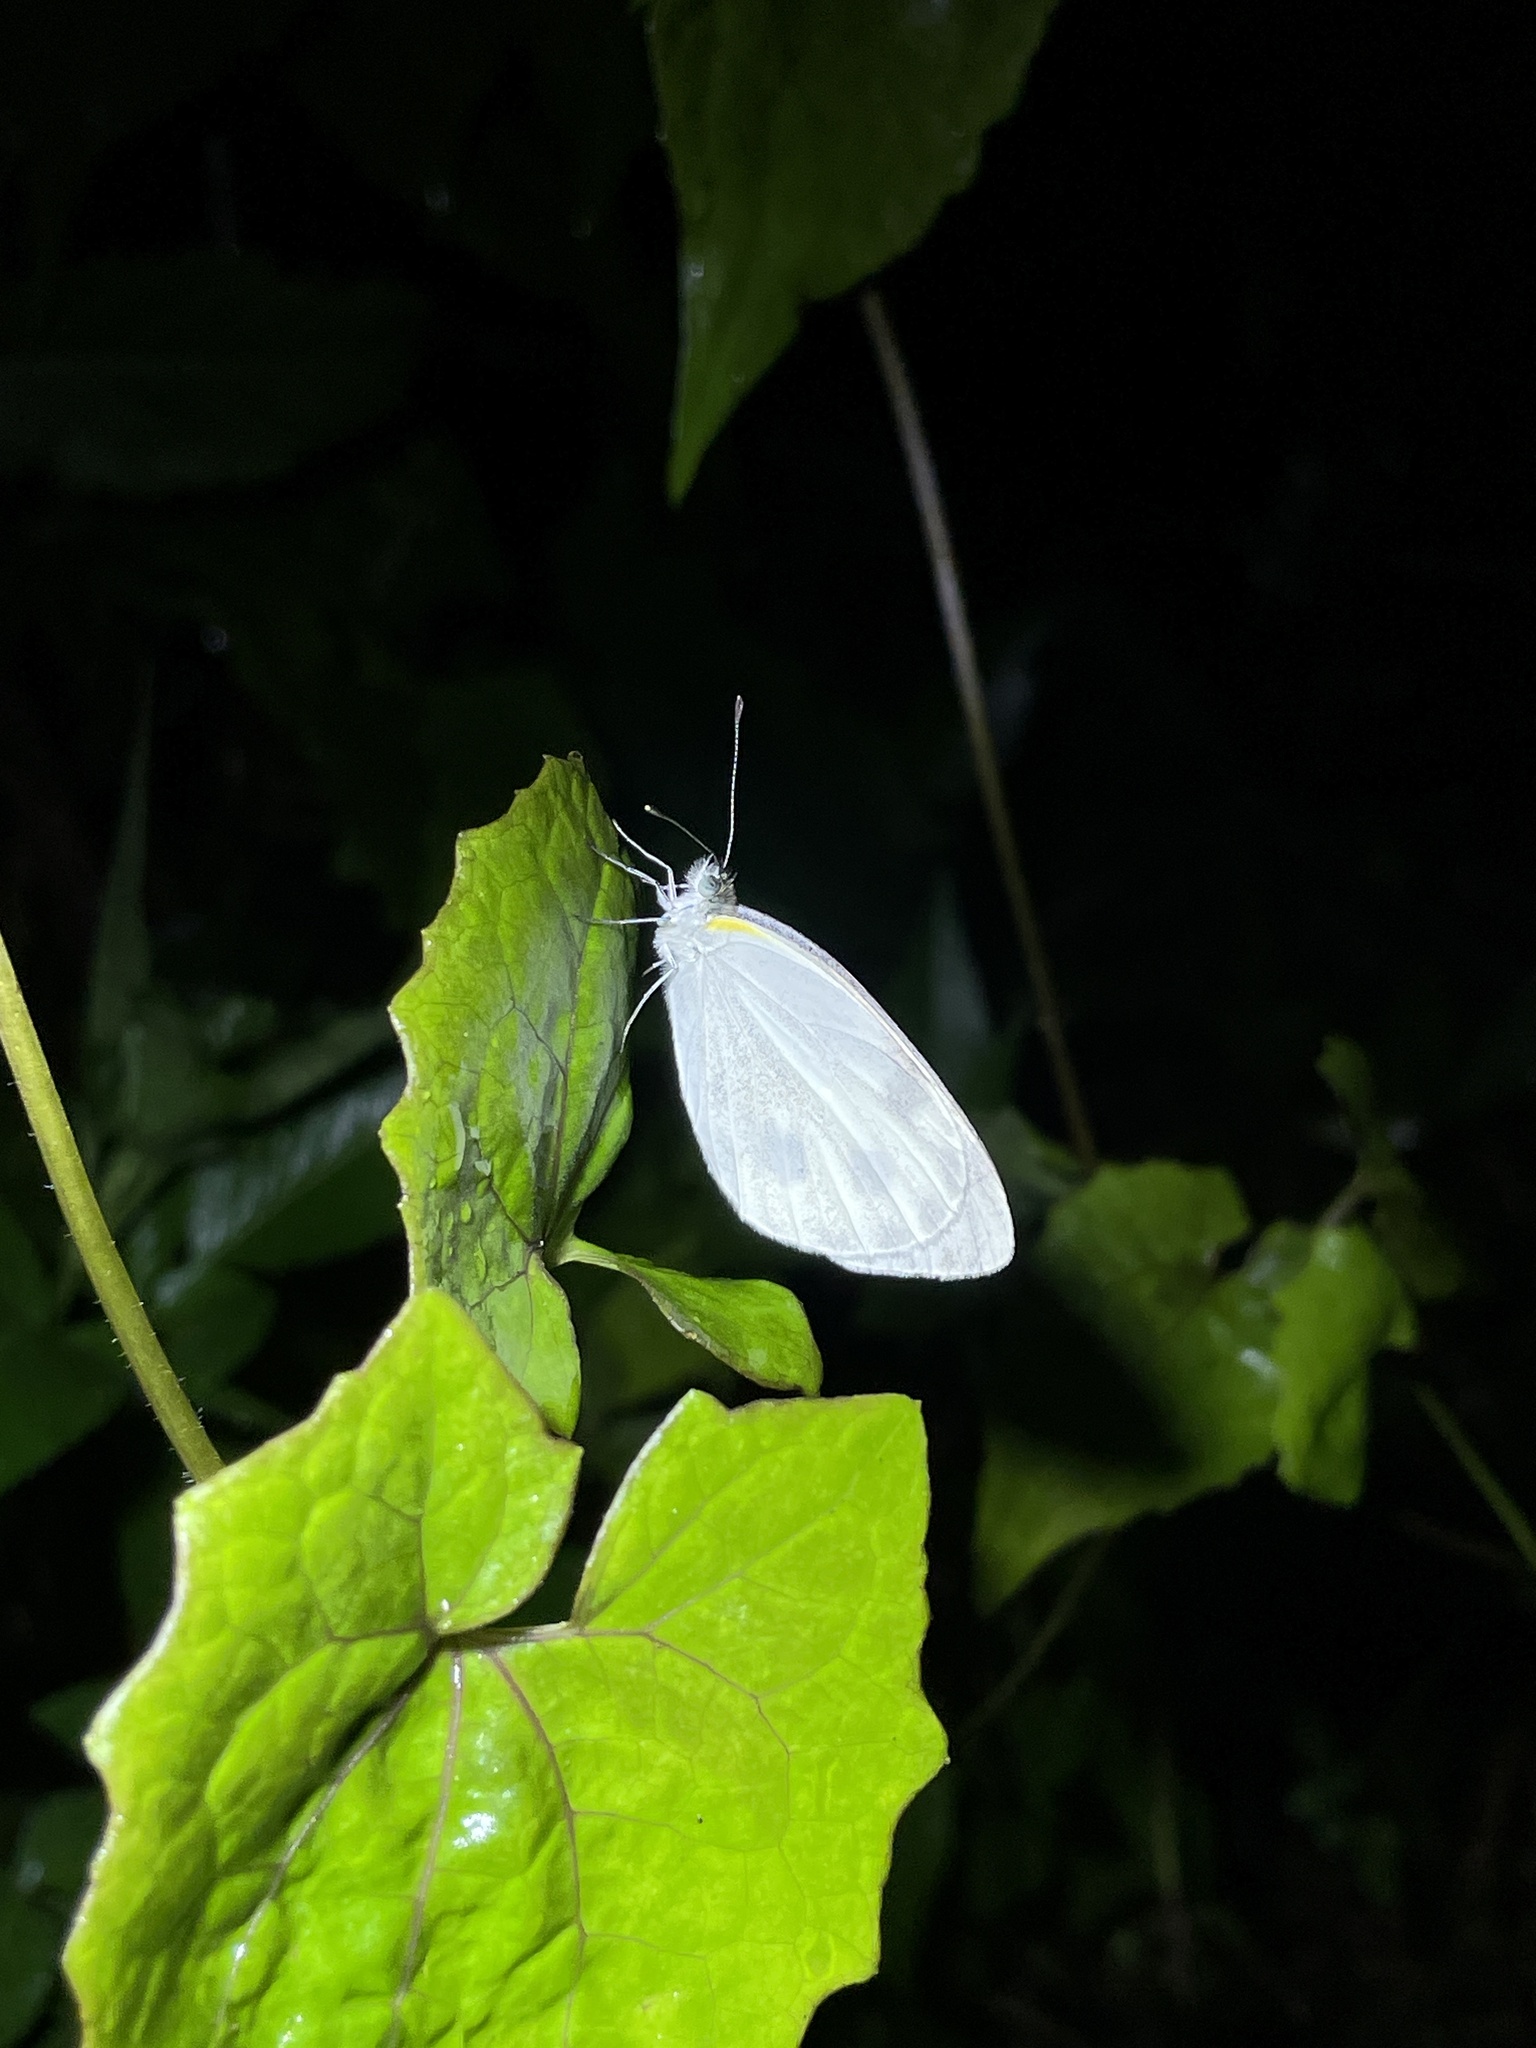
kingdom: Animalia
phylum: Arthropoda
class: Insecta
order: Lepidoptera
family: Pieridae
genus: Pieris
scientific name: Pieris canidia
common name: Indian cabbage white
